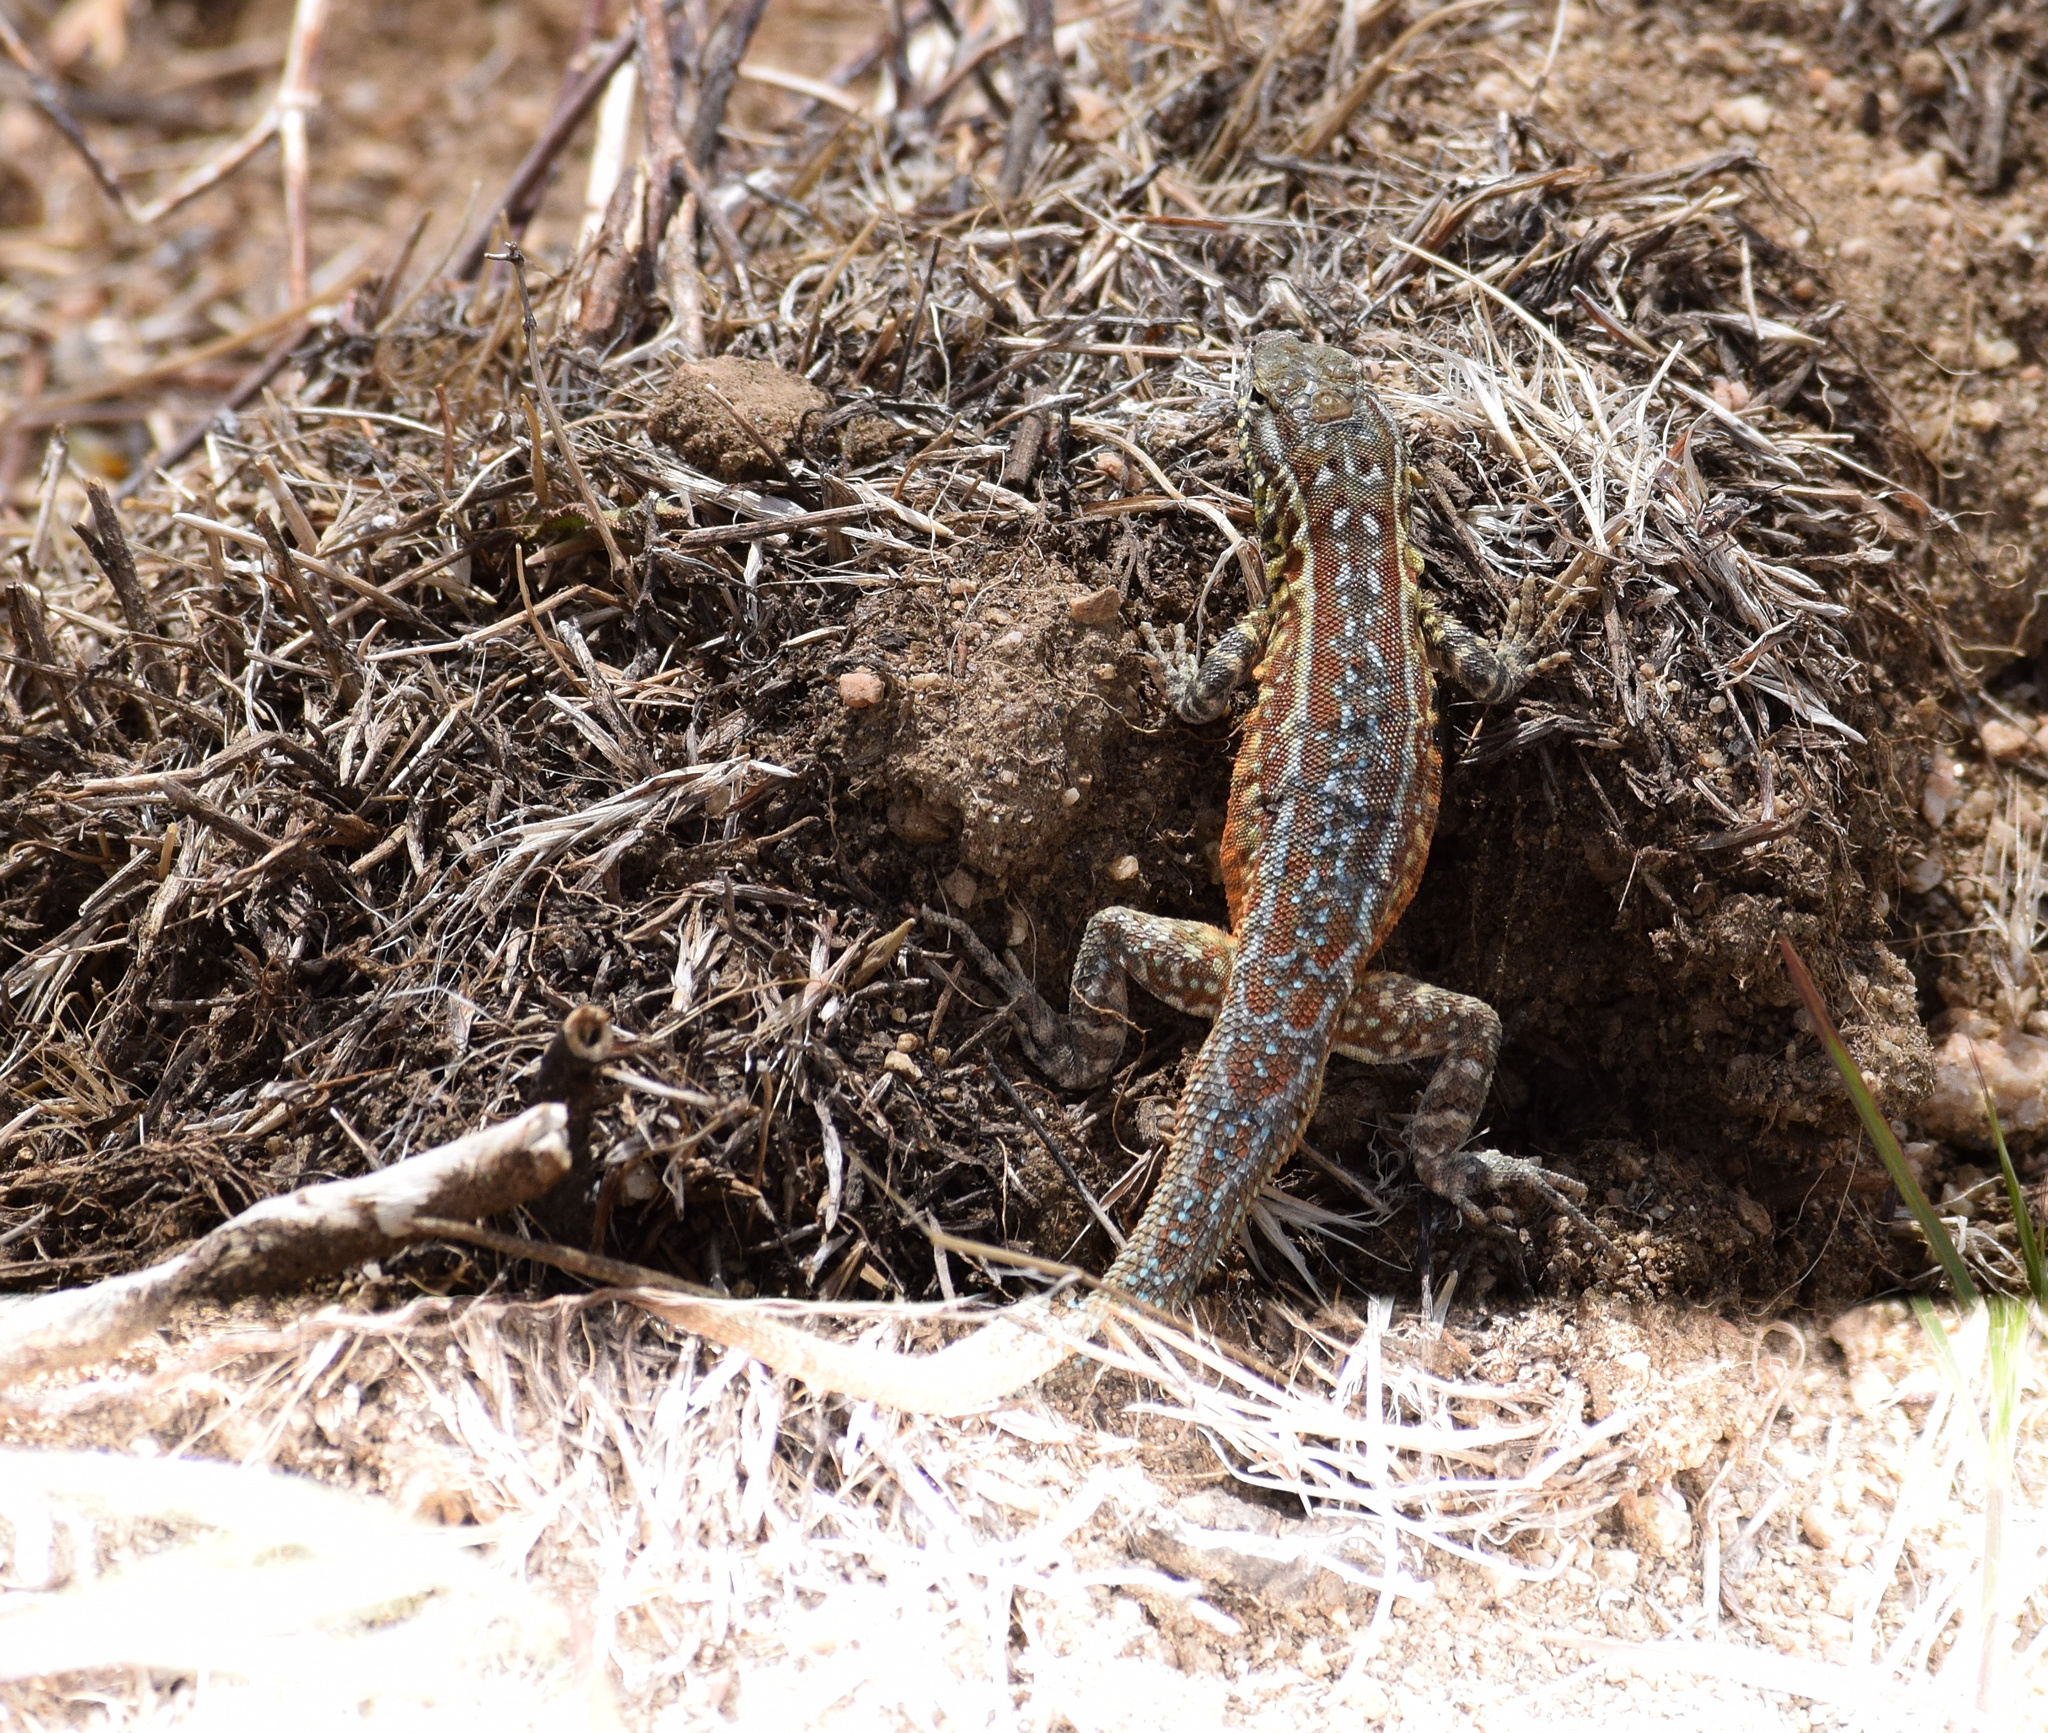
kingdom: Animalia
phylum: Chordata
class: Squamata
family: Phrynosomatidae
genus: Uta
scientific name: Uta stansburiana
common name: Side-blotched lizard
